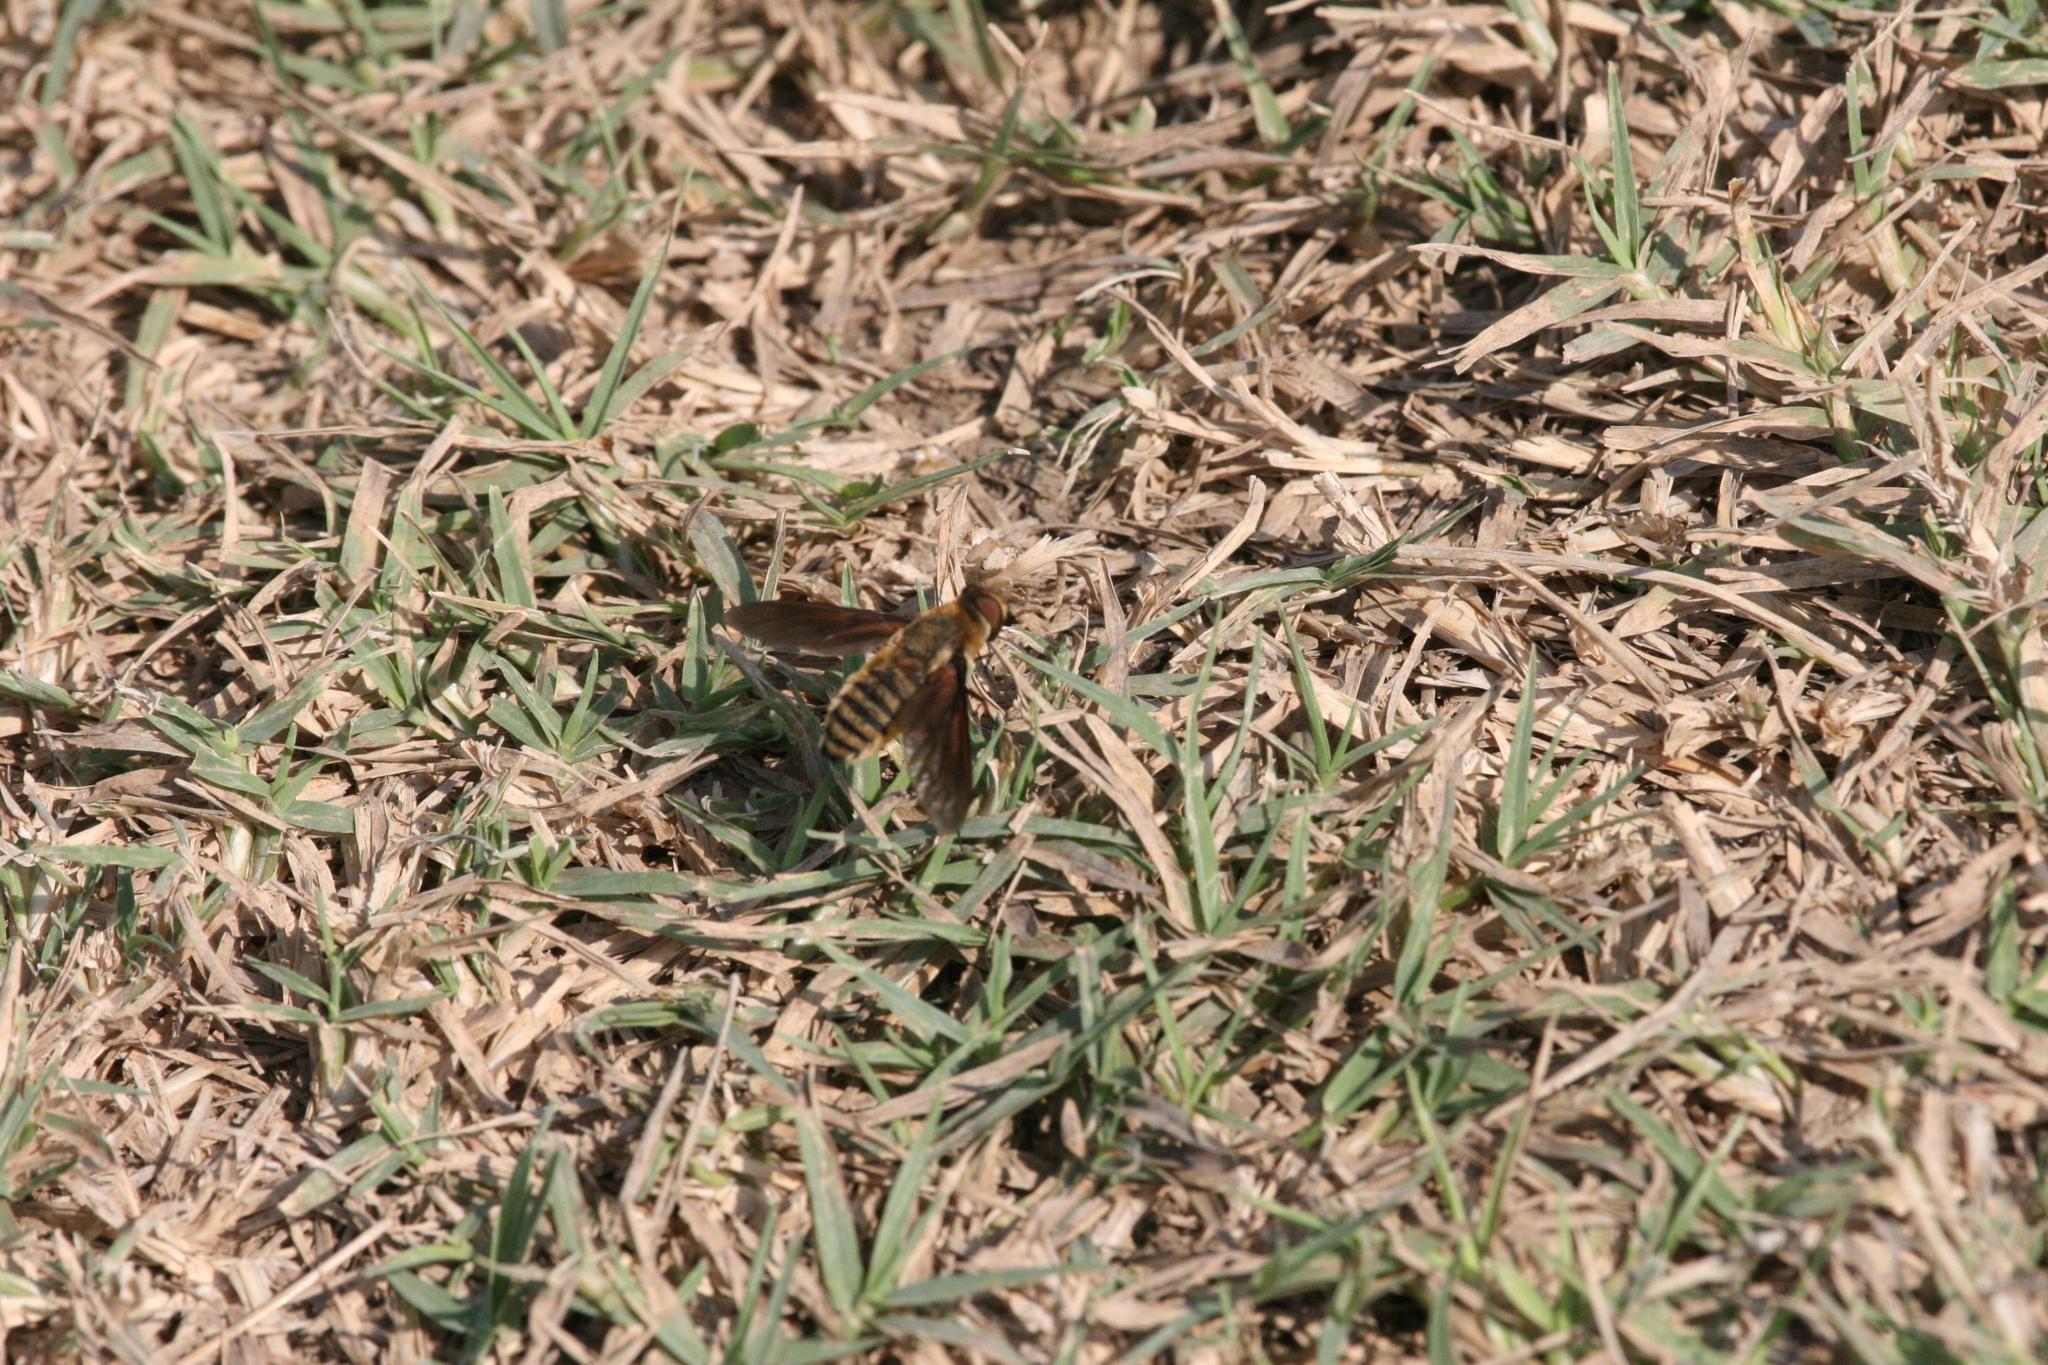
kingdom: Animalia
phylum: Arthropoda
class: Insecta
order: Diptera
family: Bombyliidae
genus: Poecilanthrax
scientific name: Poecilanthrax lucifer
